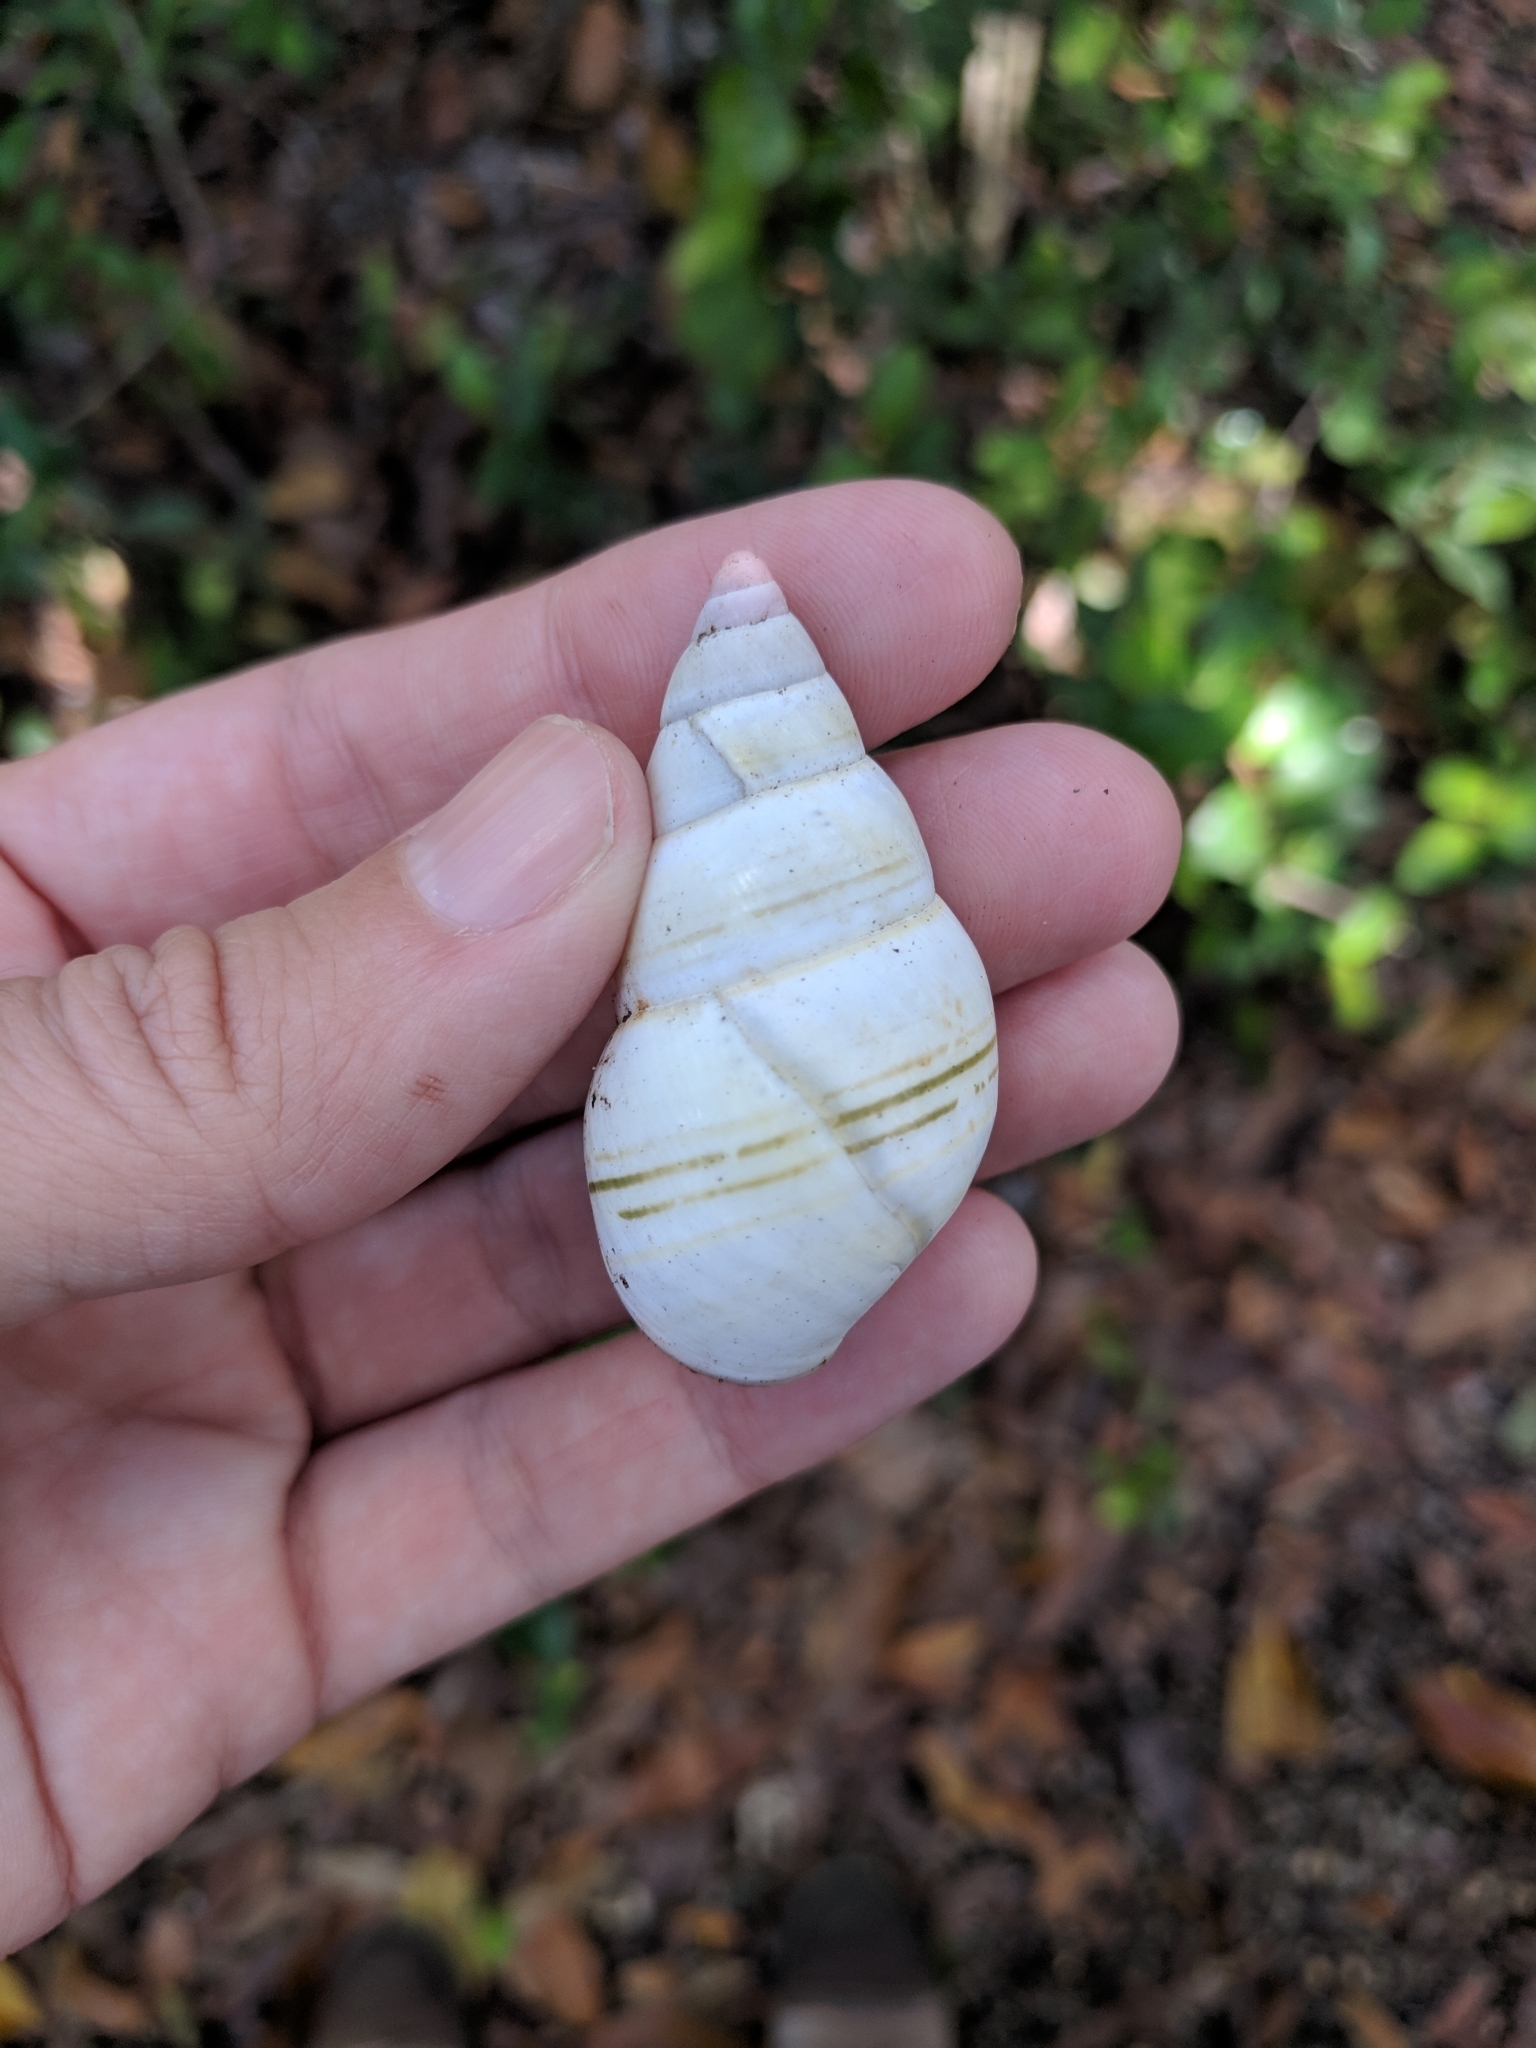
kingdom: Animalia
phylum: Mollusca
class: Gastropoda
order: Stylommatophora
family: Orthalicidae
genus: Liguus
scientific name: Liguus fasciatus
